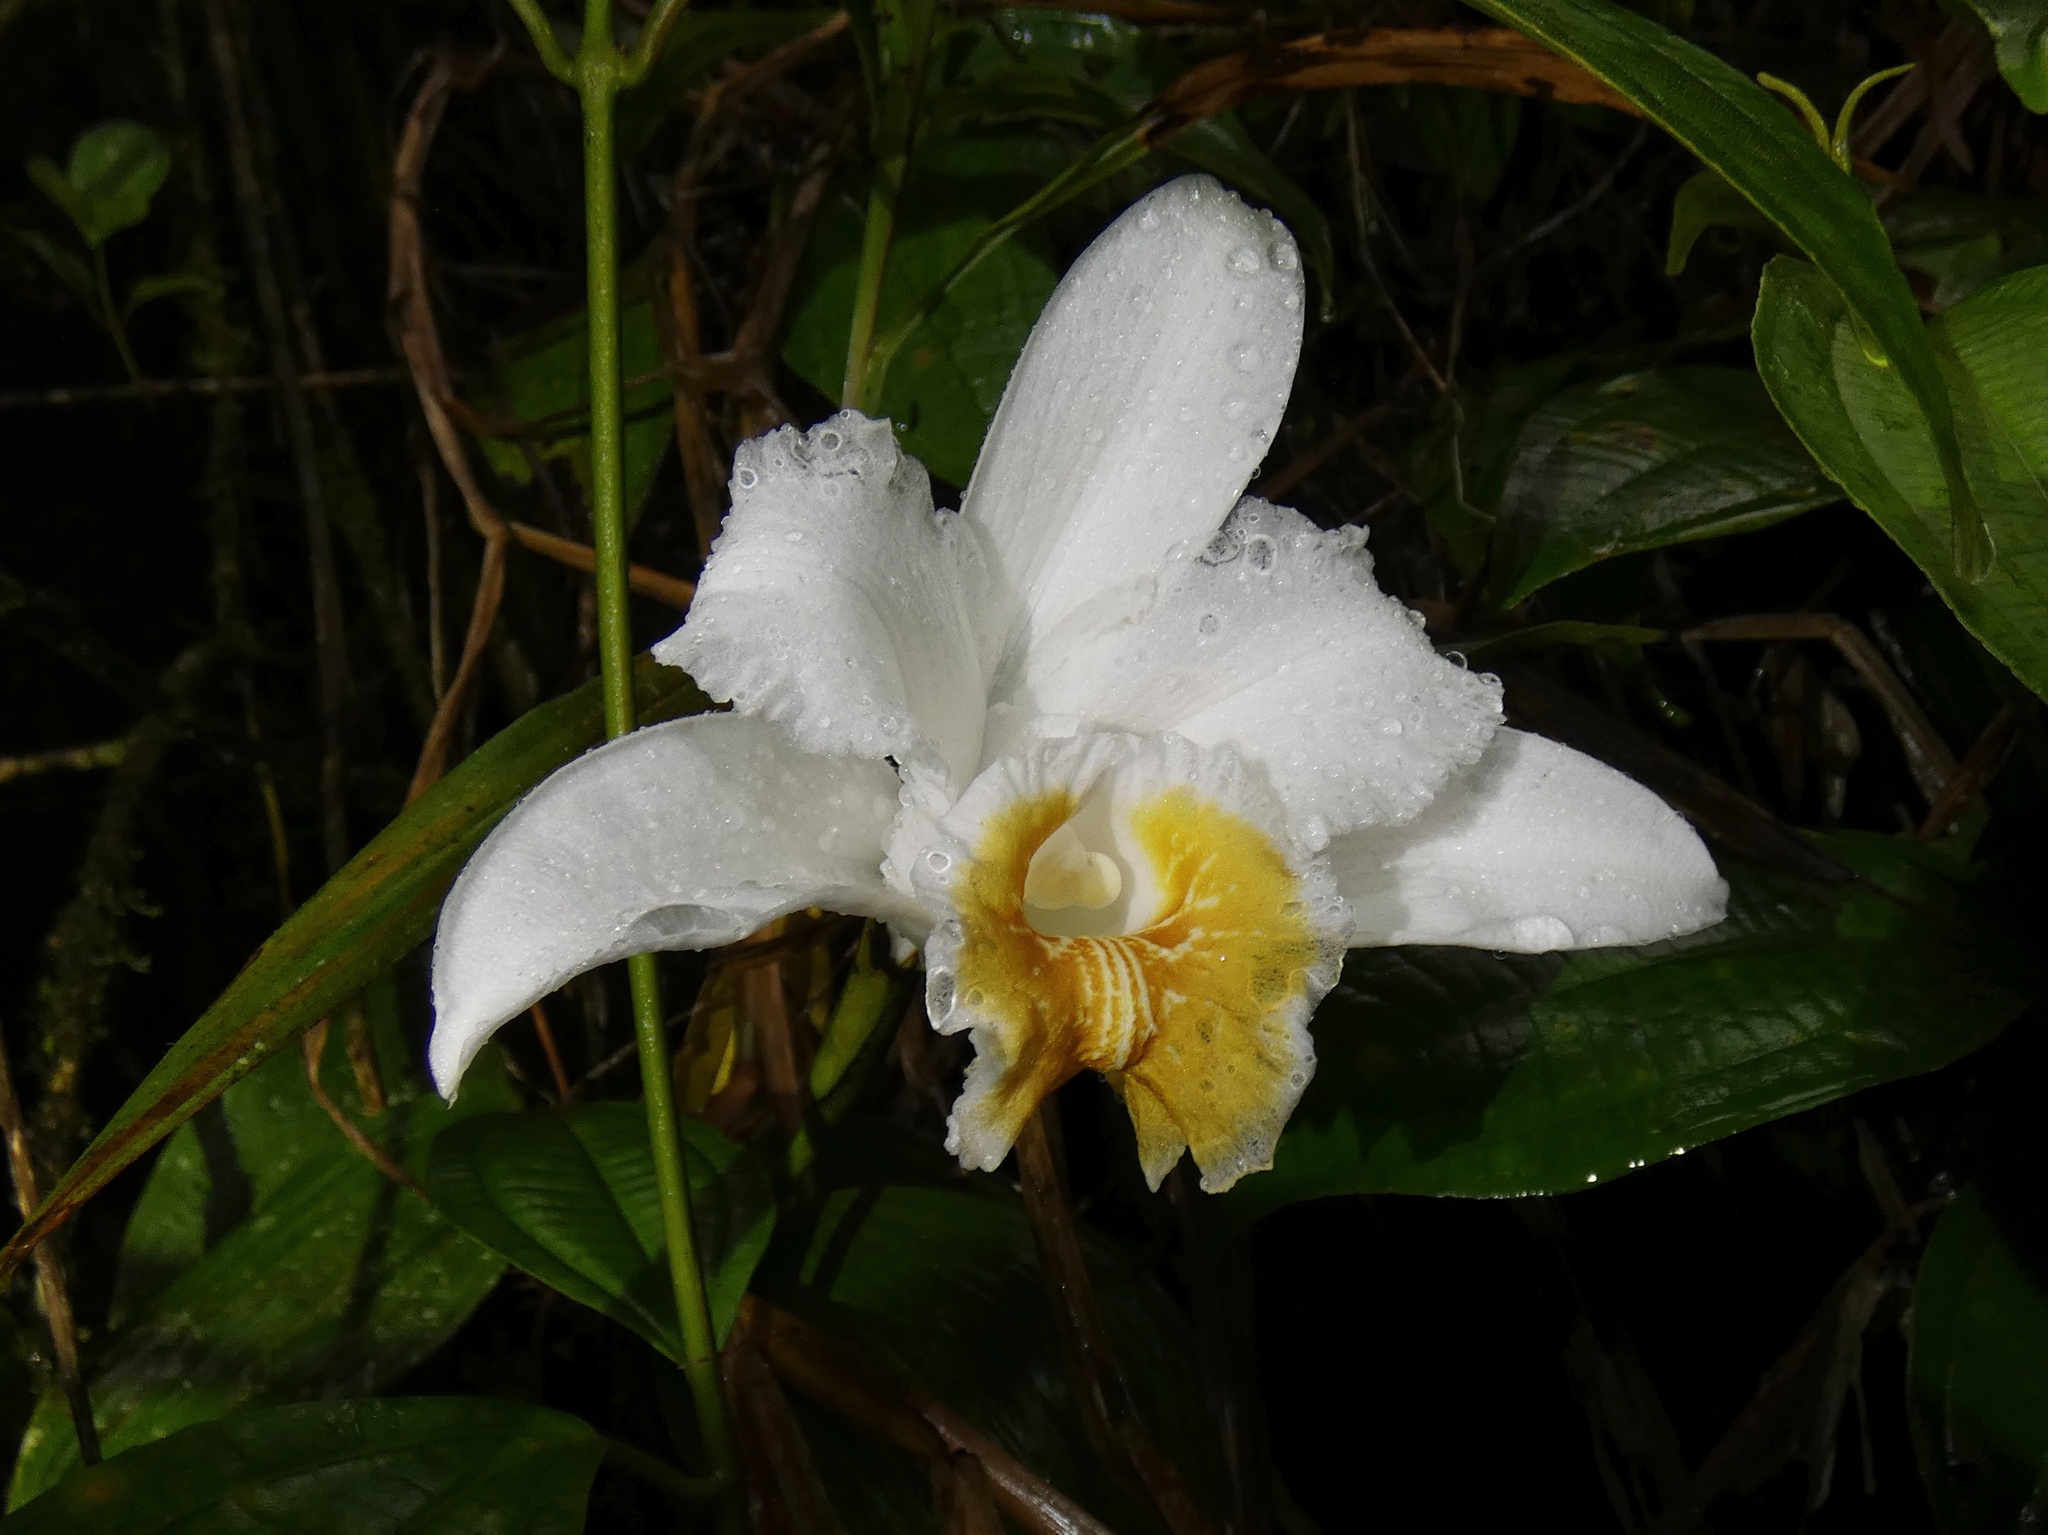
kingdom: Plantae
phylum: Tracheophyta
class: Liliopsida
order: Asparagales
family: Orchidaceae
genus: Sobralia
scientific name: Sobralia chrysostoma
